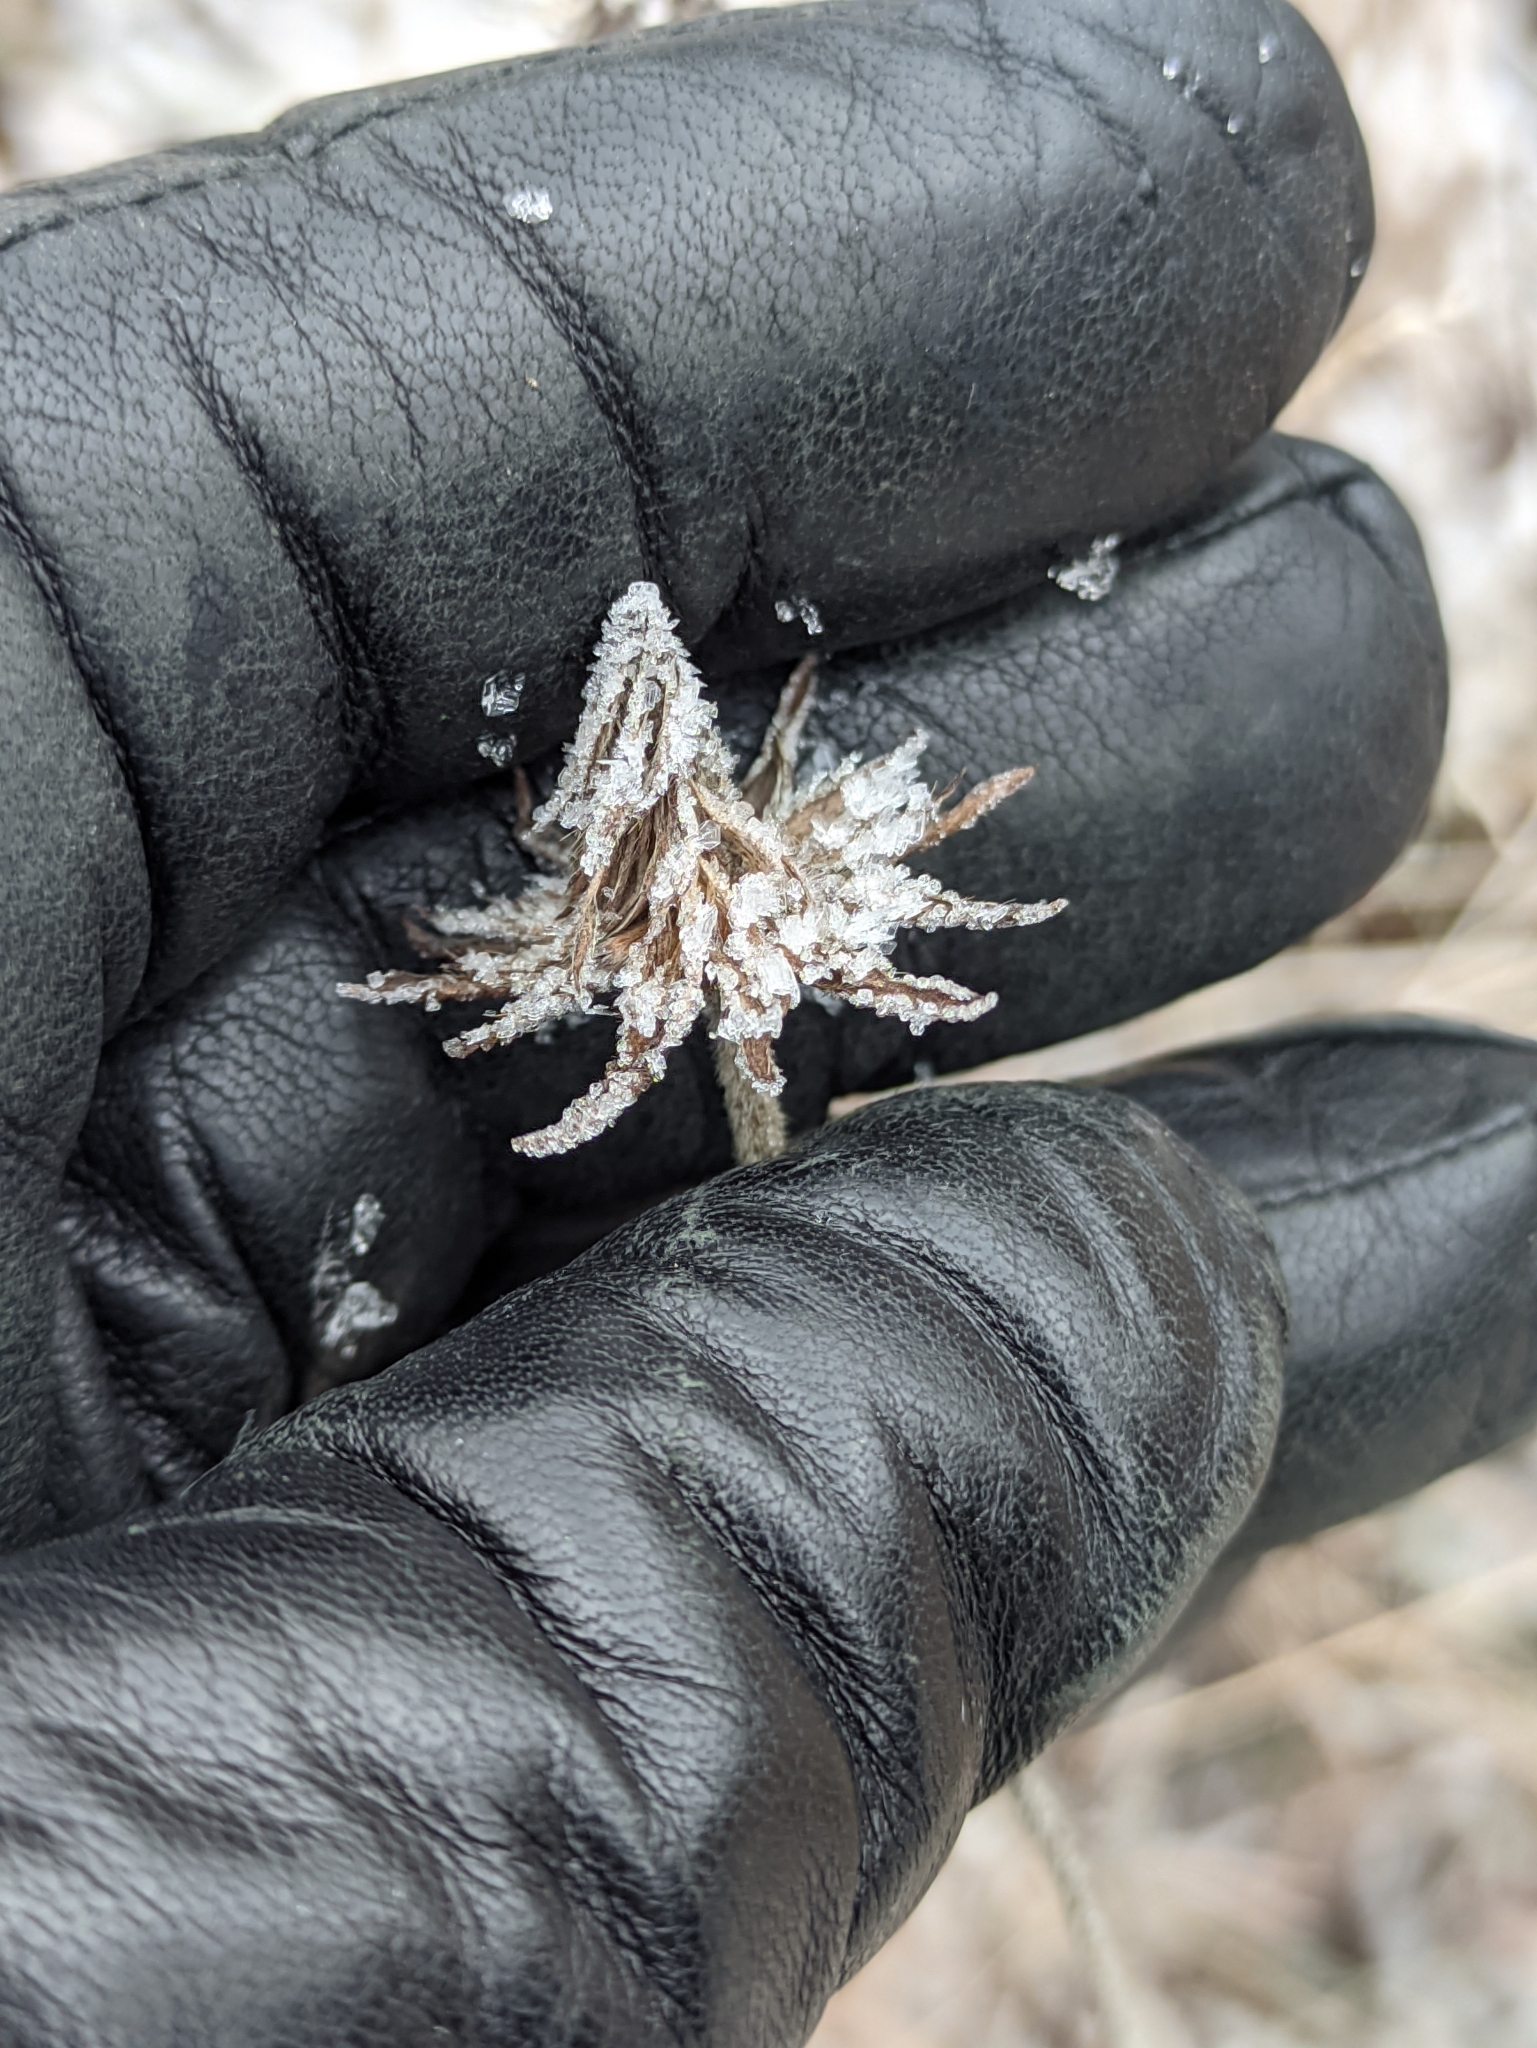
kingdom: Plantae
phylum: Tracheophyta
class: Magnoliopsida
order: Dipsacales
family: Caprifoliaceae
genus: Succisa
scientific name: Succisa pratensis
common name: Devil's-bit
